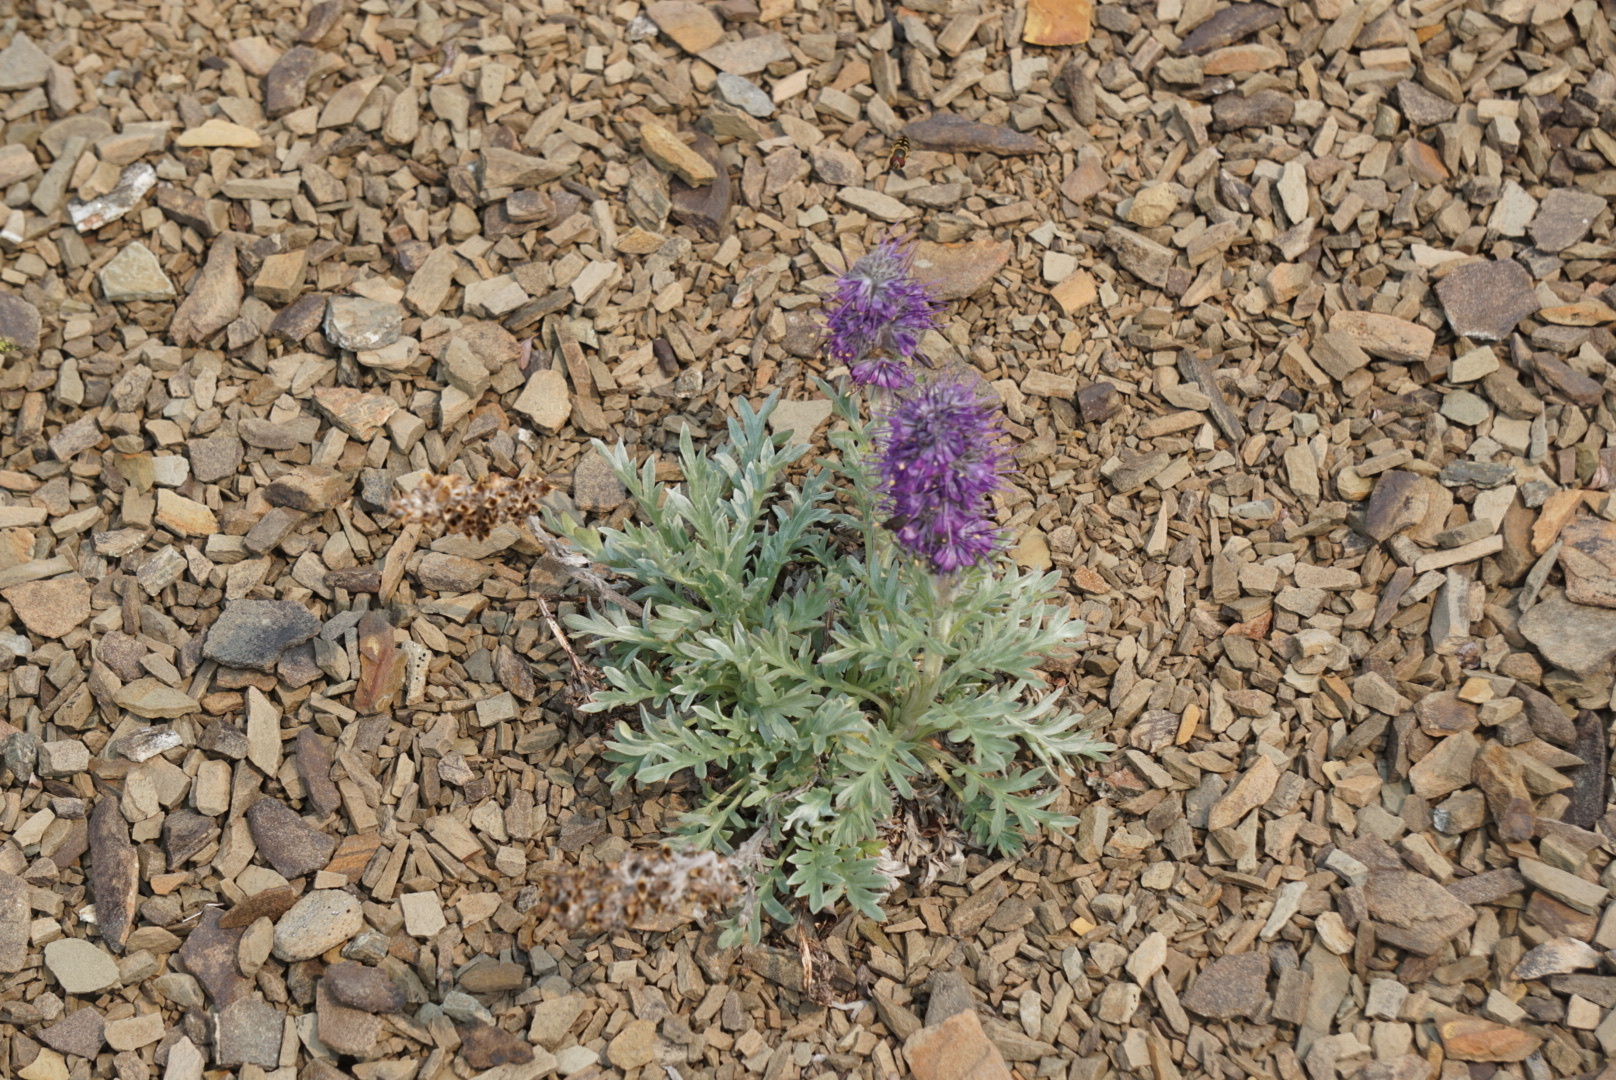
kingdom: Plantae
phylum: Tracheophyta
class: Magnoliopsida
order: Boraginales
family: Hydrophyllaceae
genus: Phacelia
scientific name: Phacelia sericea
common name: Silky phacelia
